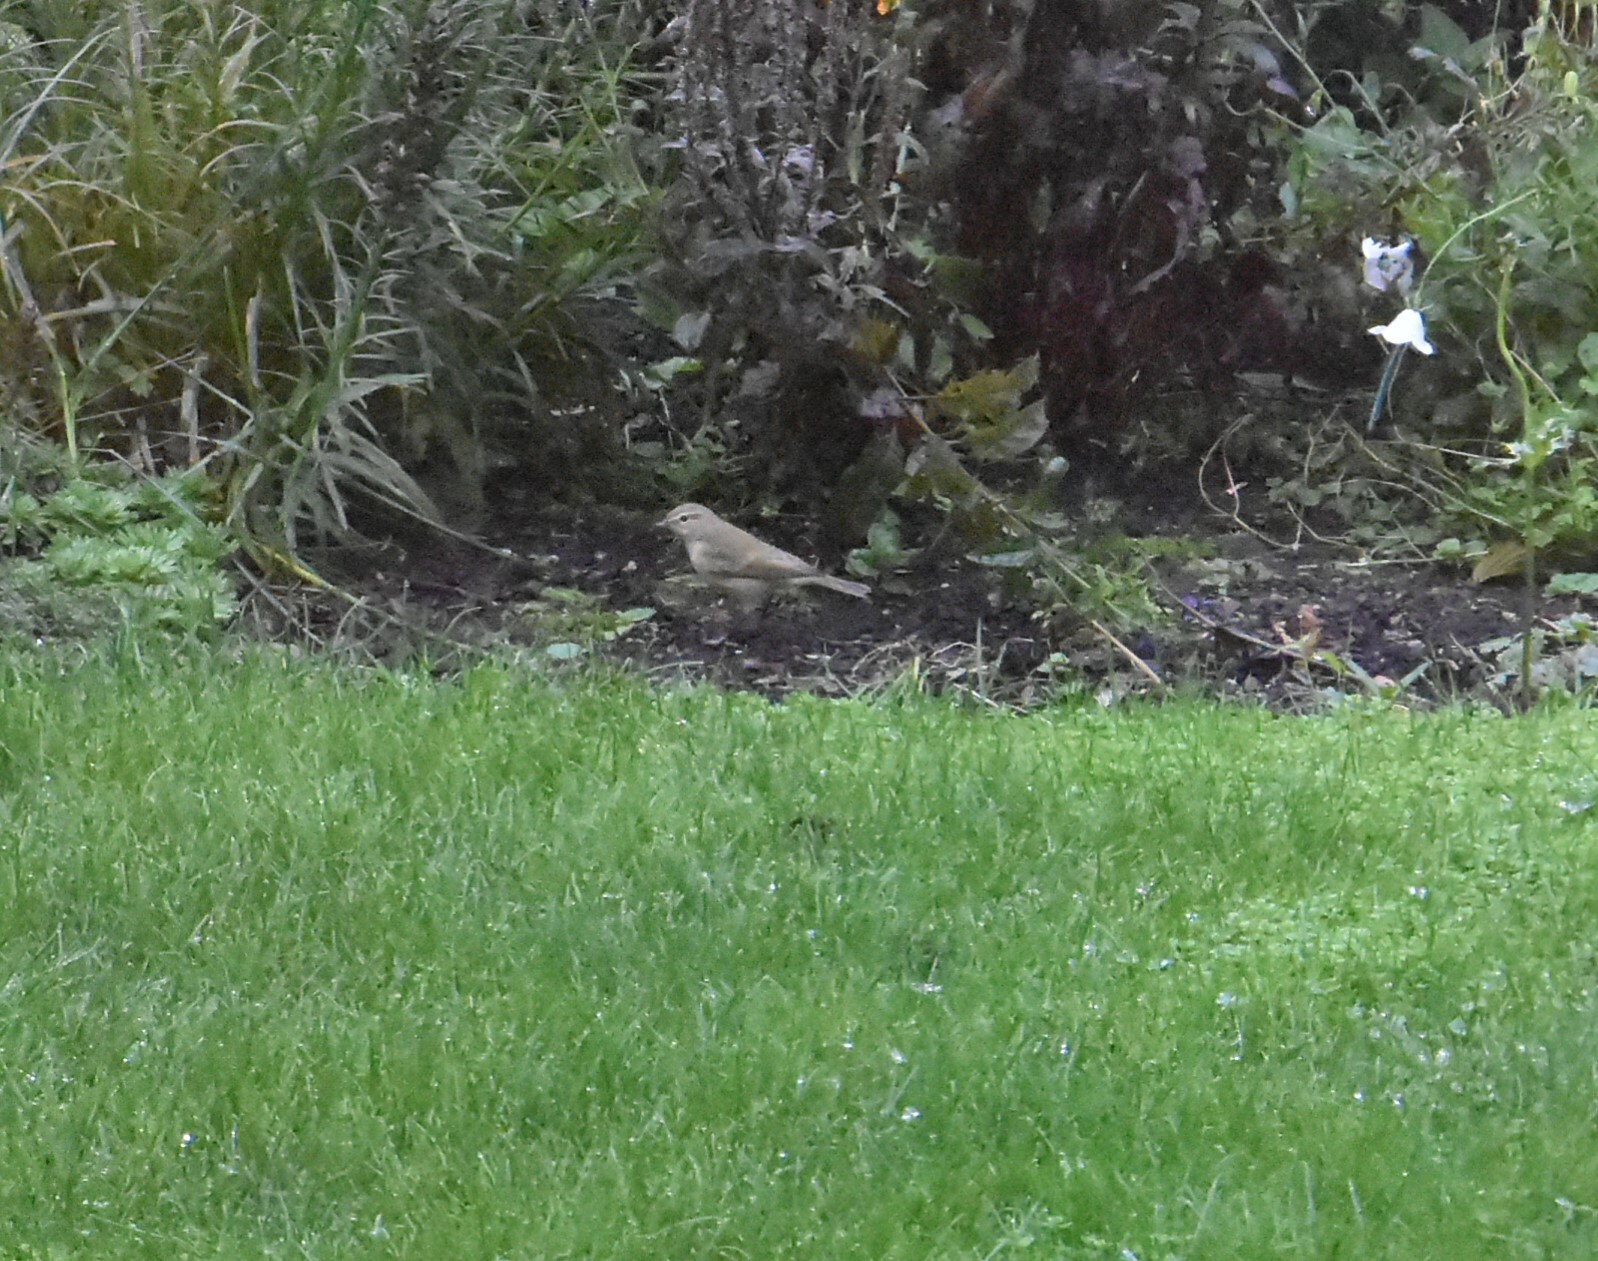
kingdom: Animalia
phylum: Chordata
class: Aves
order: Passeriformes
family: Phylloscopidae
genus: Phylloscopus
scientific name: Phylloscopus collybita
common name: Common chiffchaff
